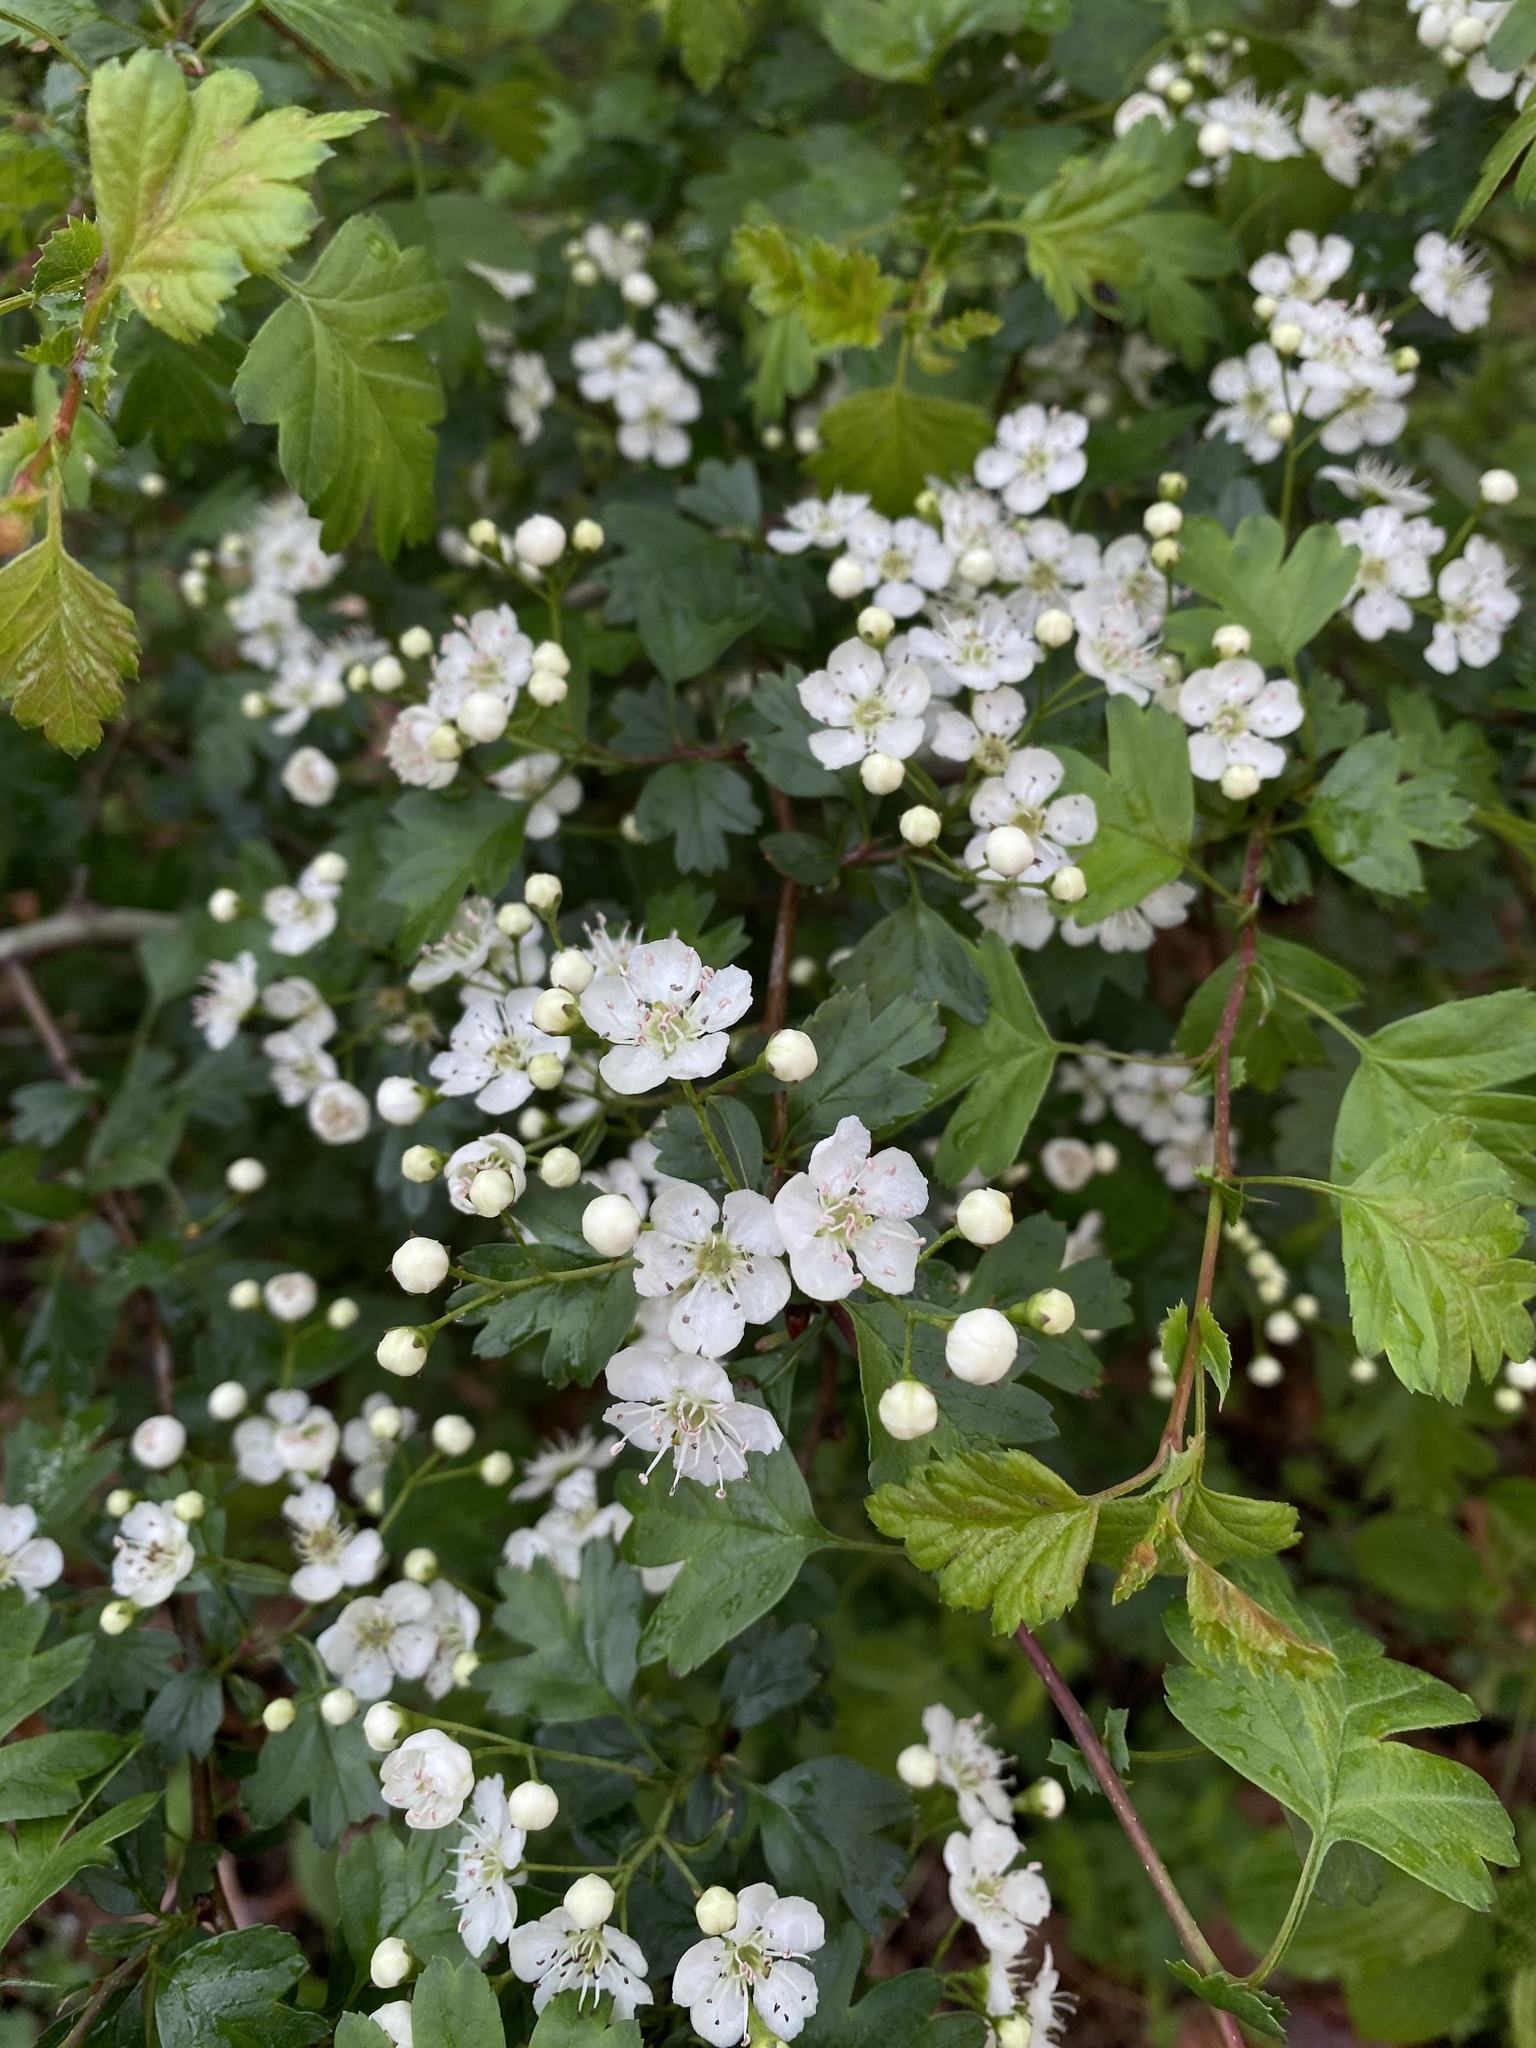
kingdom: Plantae
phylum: Tracheophyta
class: Magnoliopsida
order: Rosales
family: Rosaceae
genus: Crataegus
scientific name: Crataegus monogyna
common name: Hawthorn
